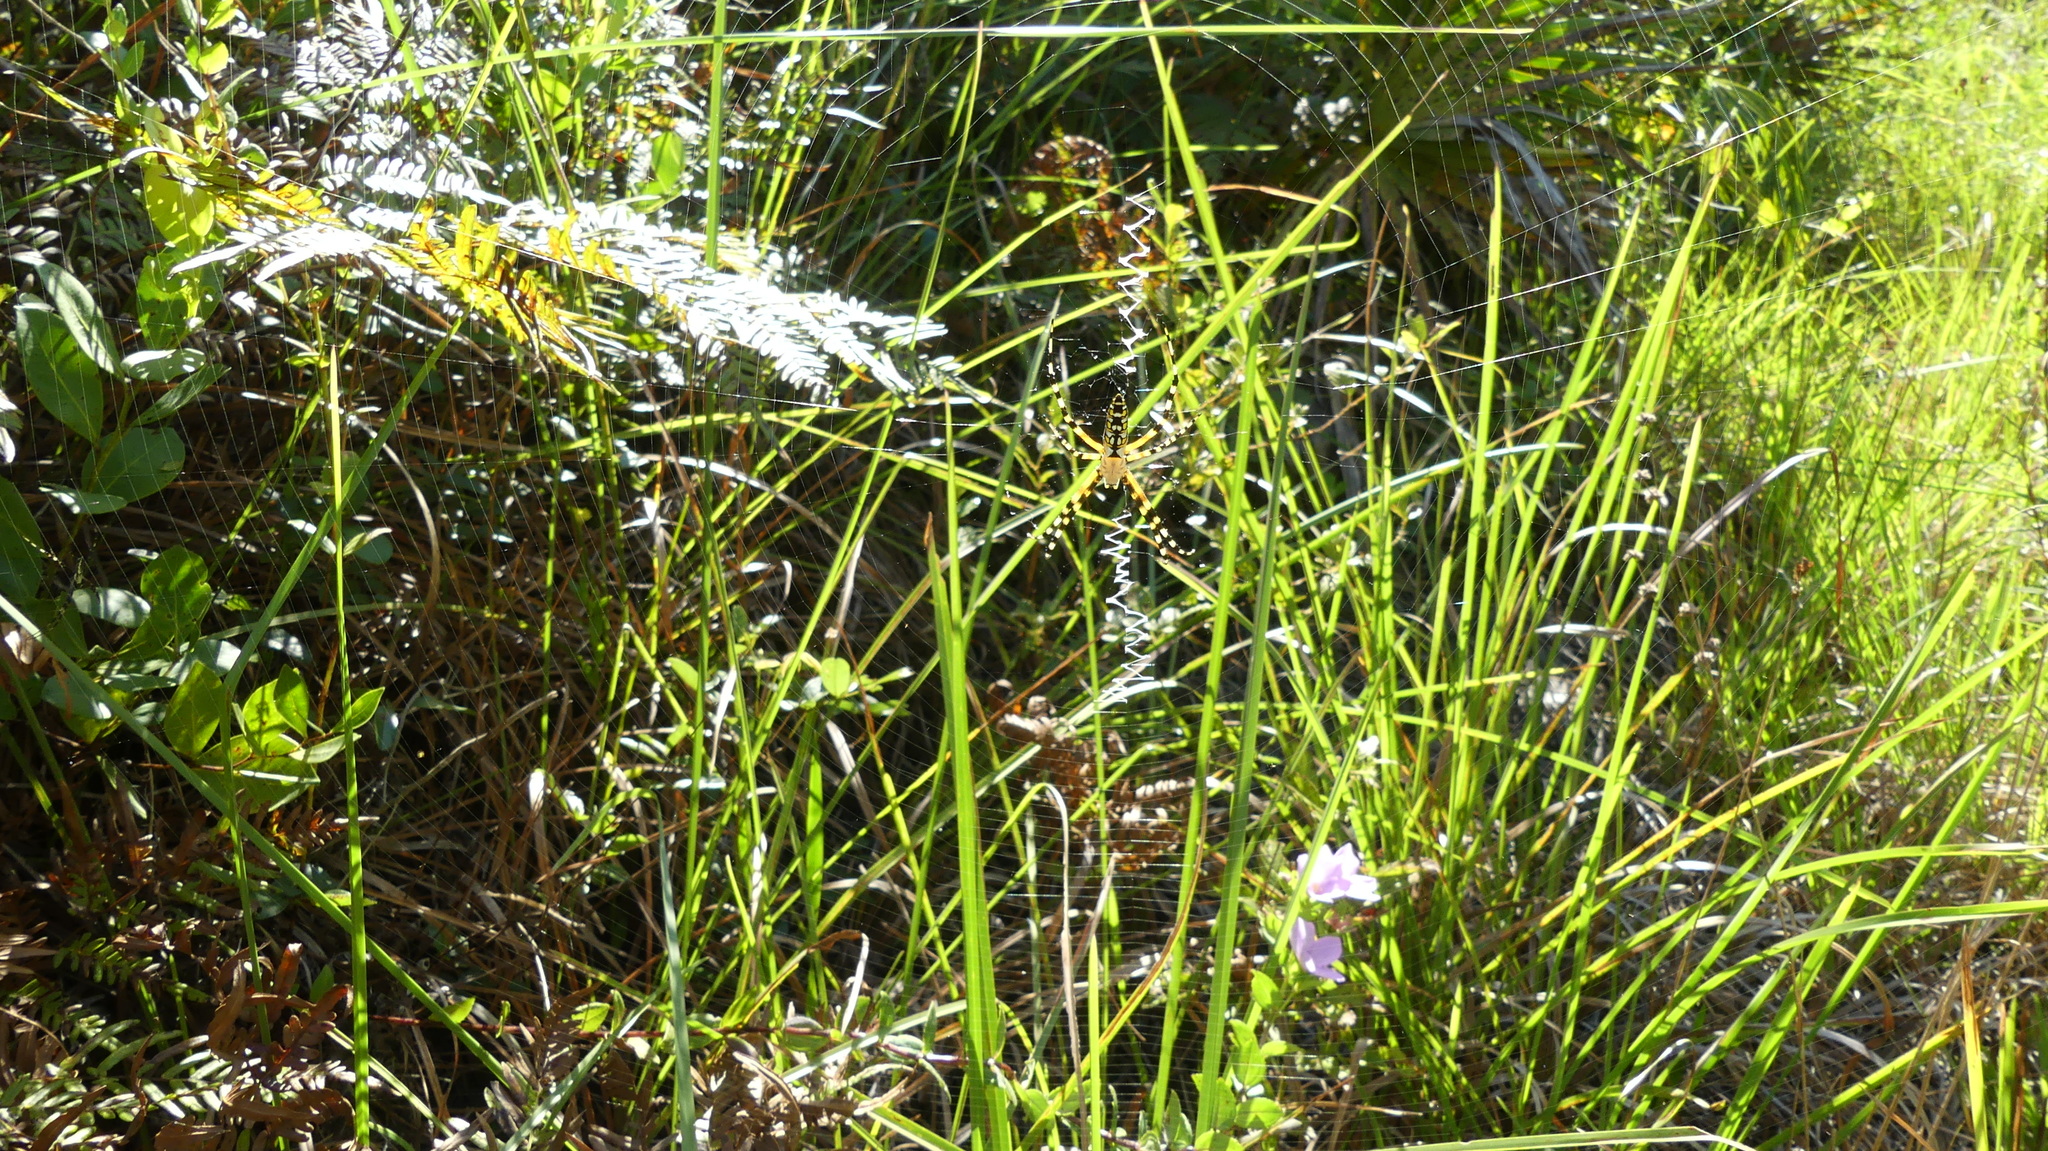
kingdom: Animalia
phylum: Arthropoda
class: Arachnida
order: Araneae
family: Araneidae
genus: Argiope
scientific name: Argiope aurantia
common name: Orb weavers
